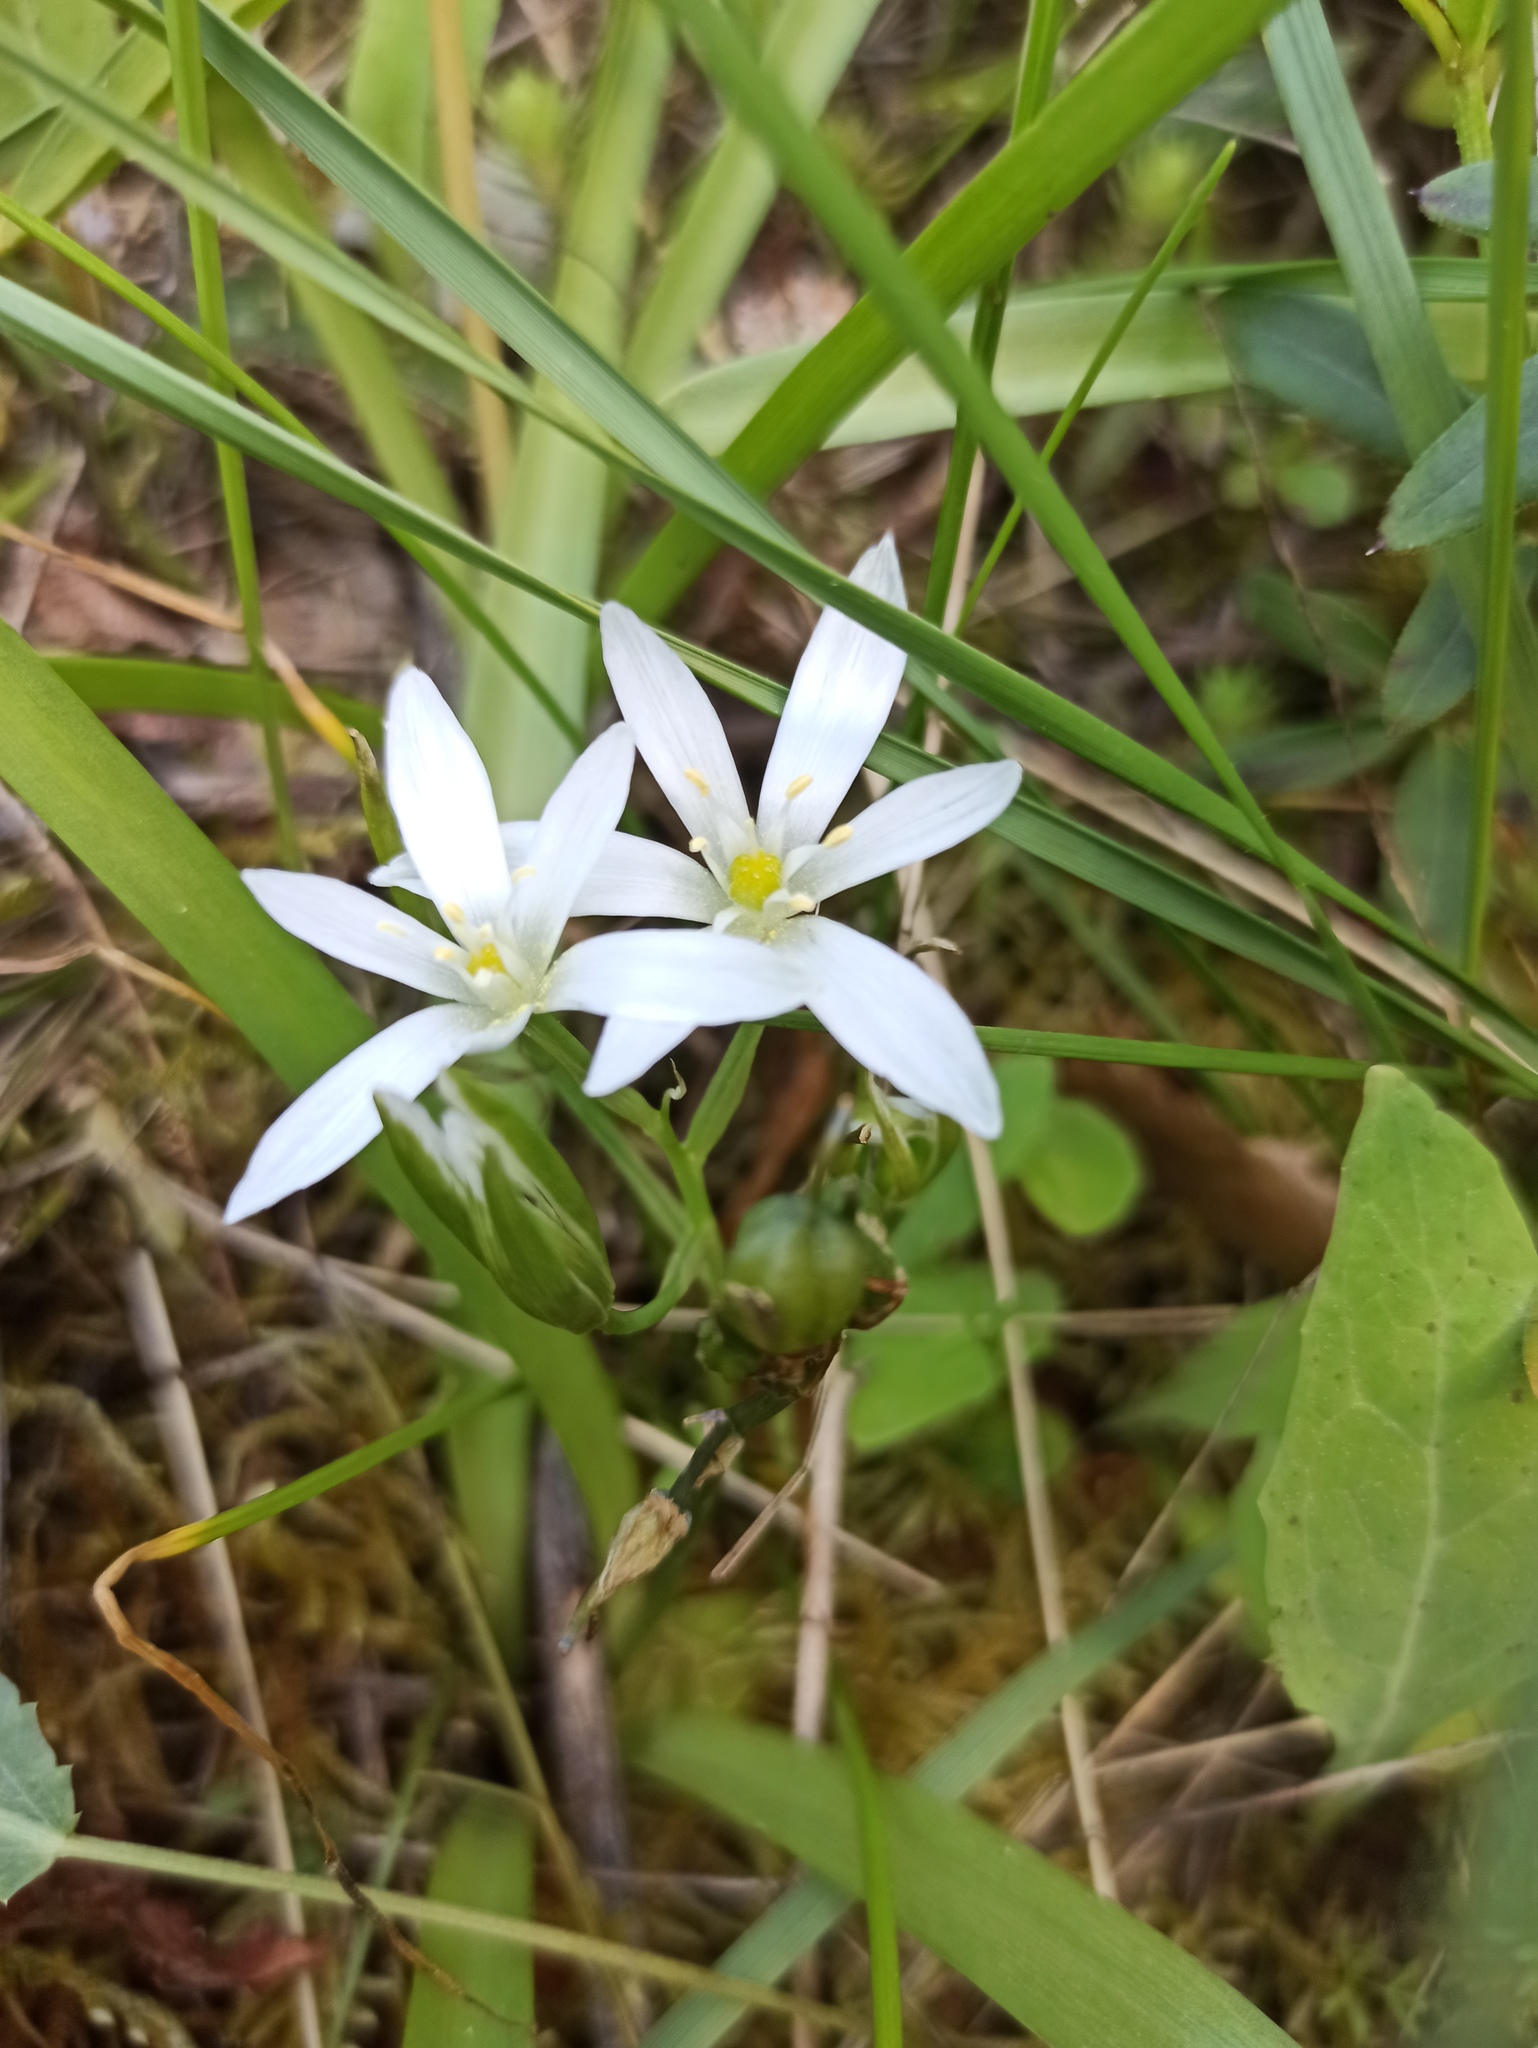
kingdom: Plantae
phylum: Tracheophyta
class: Liliopsida
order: Asparagales
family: Asparagaceae
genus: Ornithogalum
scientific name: Ornithogalum baeticum
